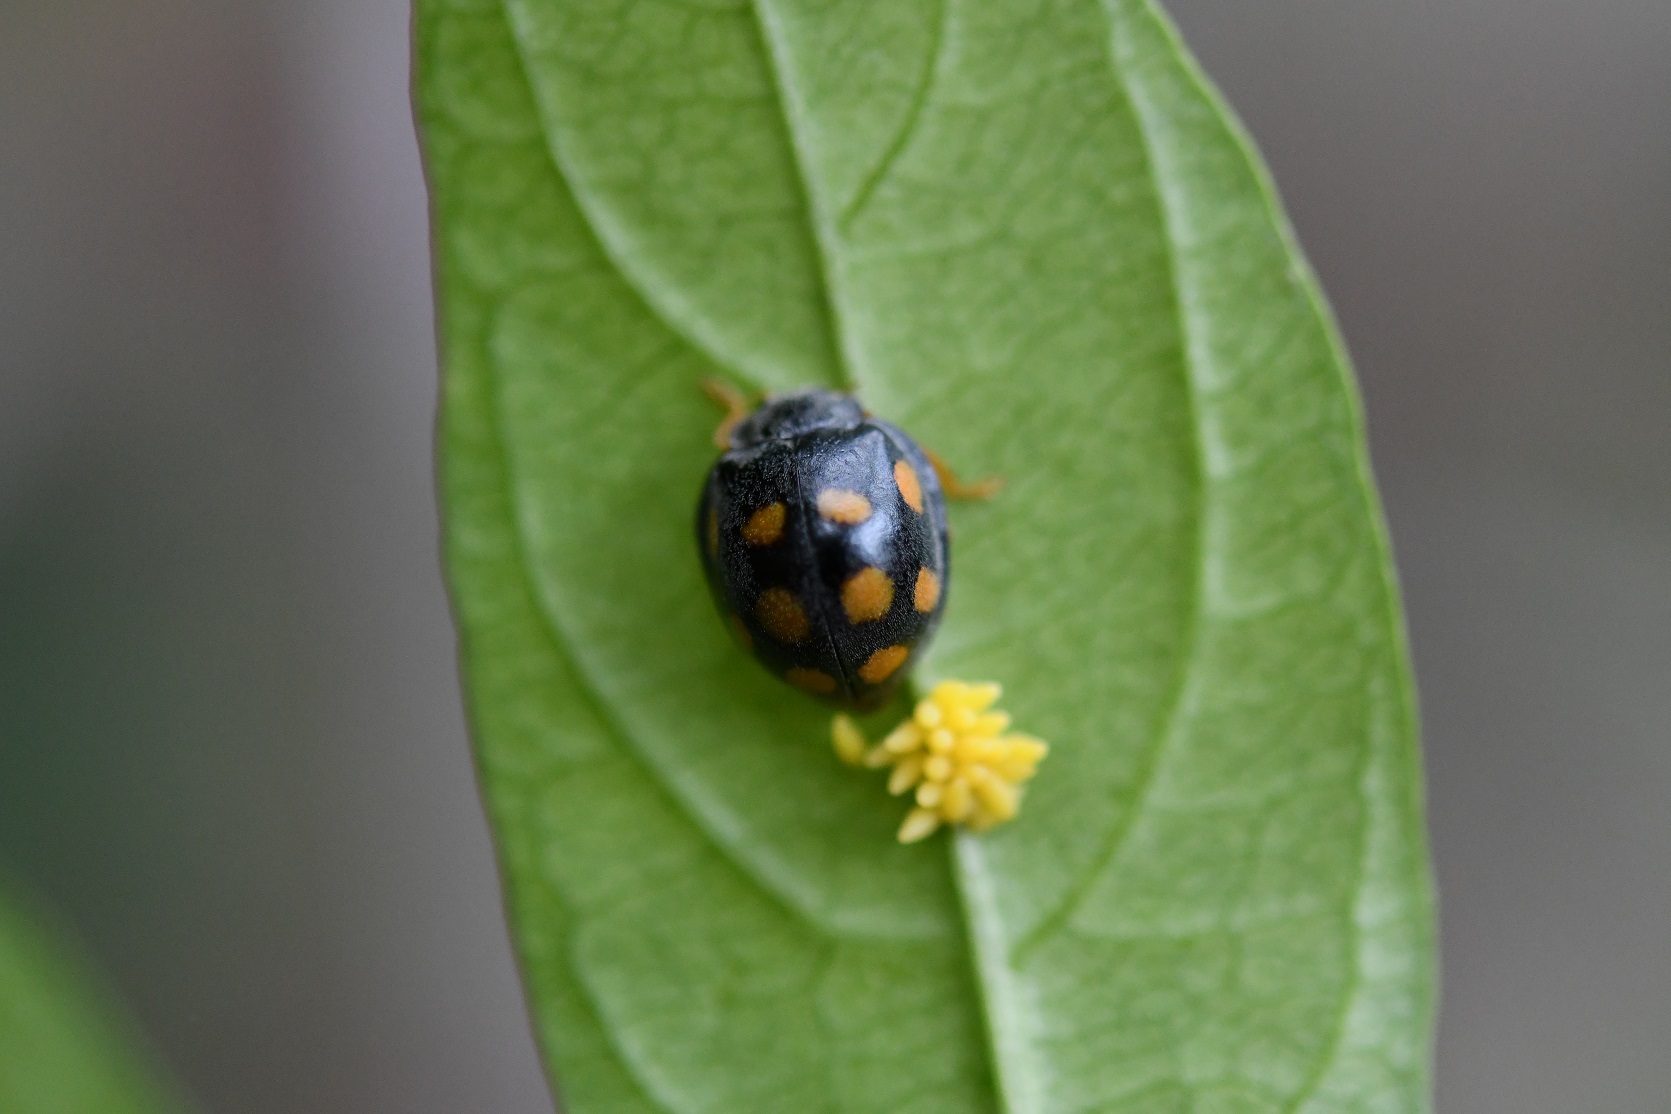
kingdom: Animalia
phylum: Arthropoda
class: Insecta
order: Coleoptera
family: Coccinellidae
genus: Epilachna
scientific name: Epilachna
